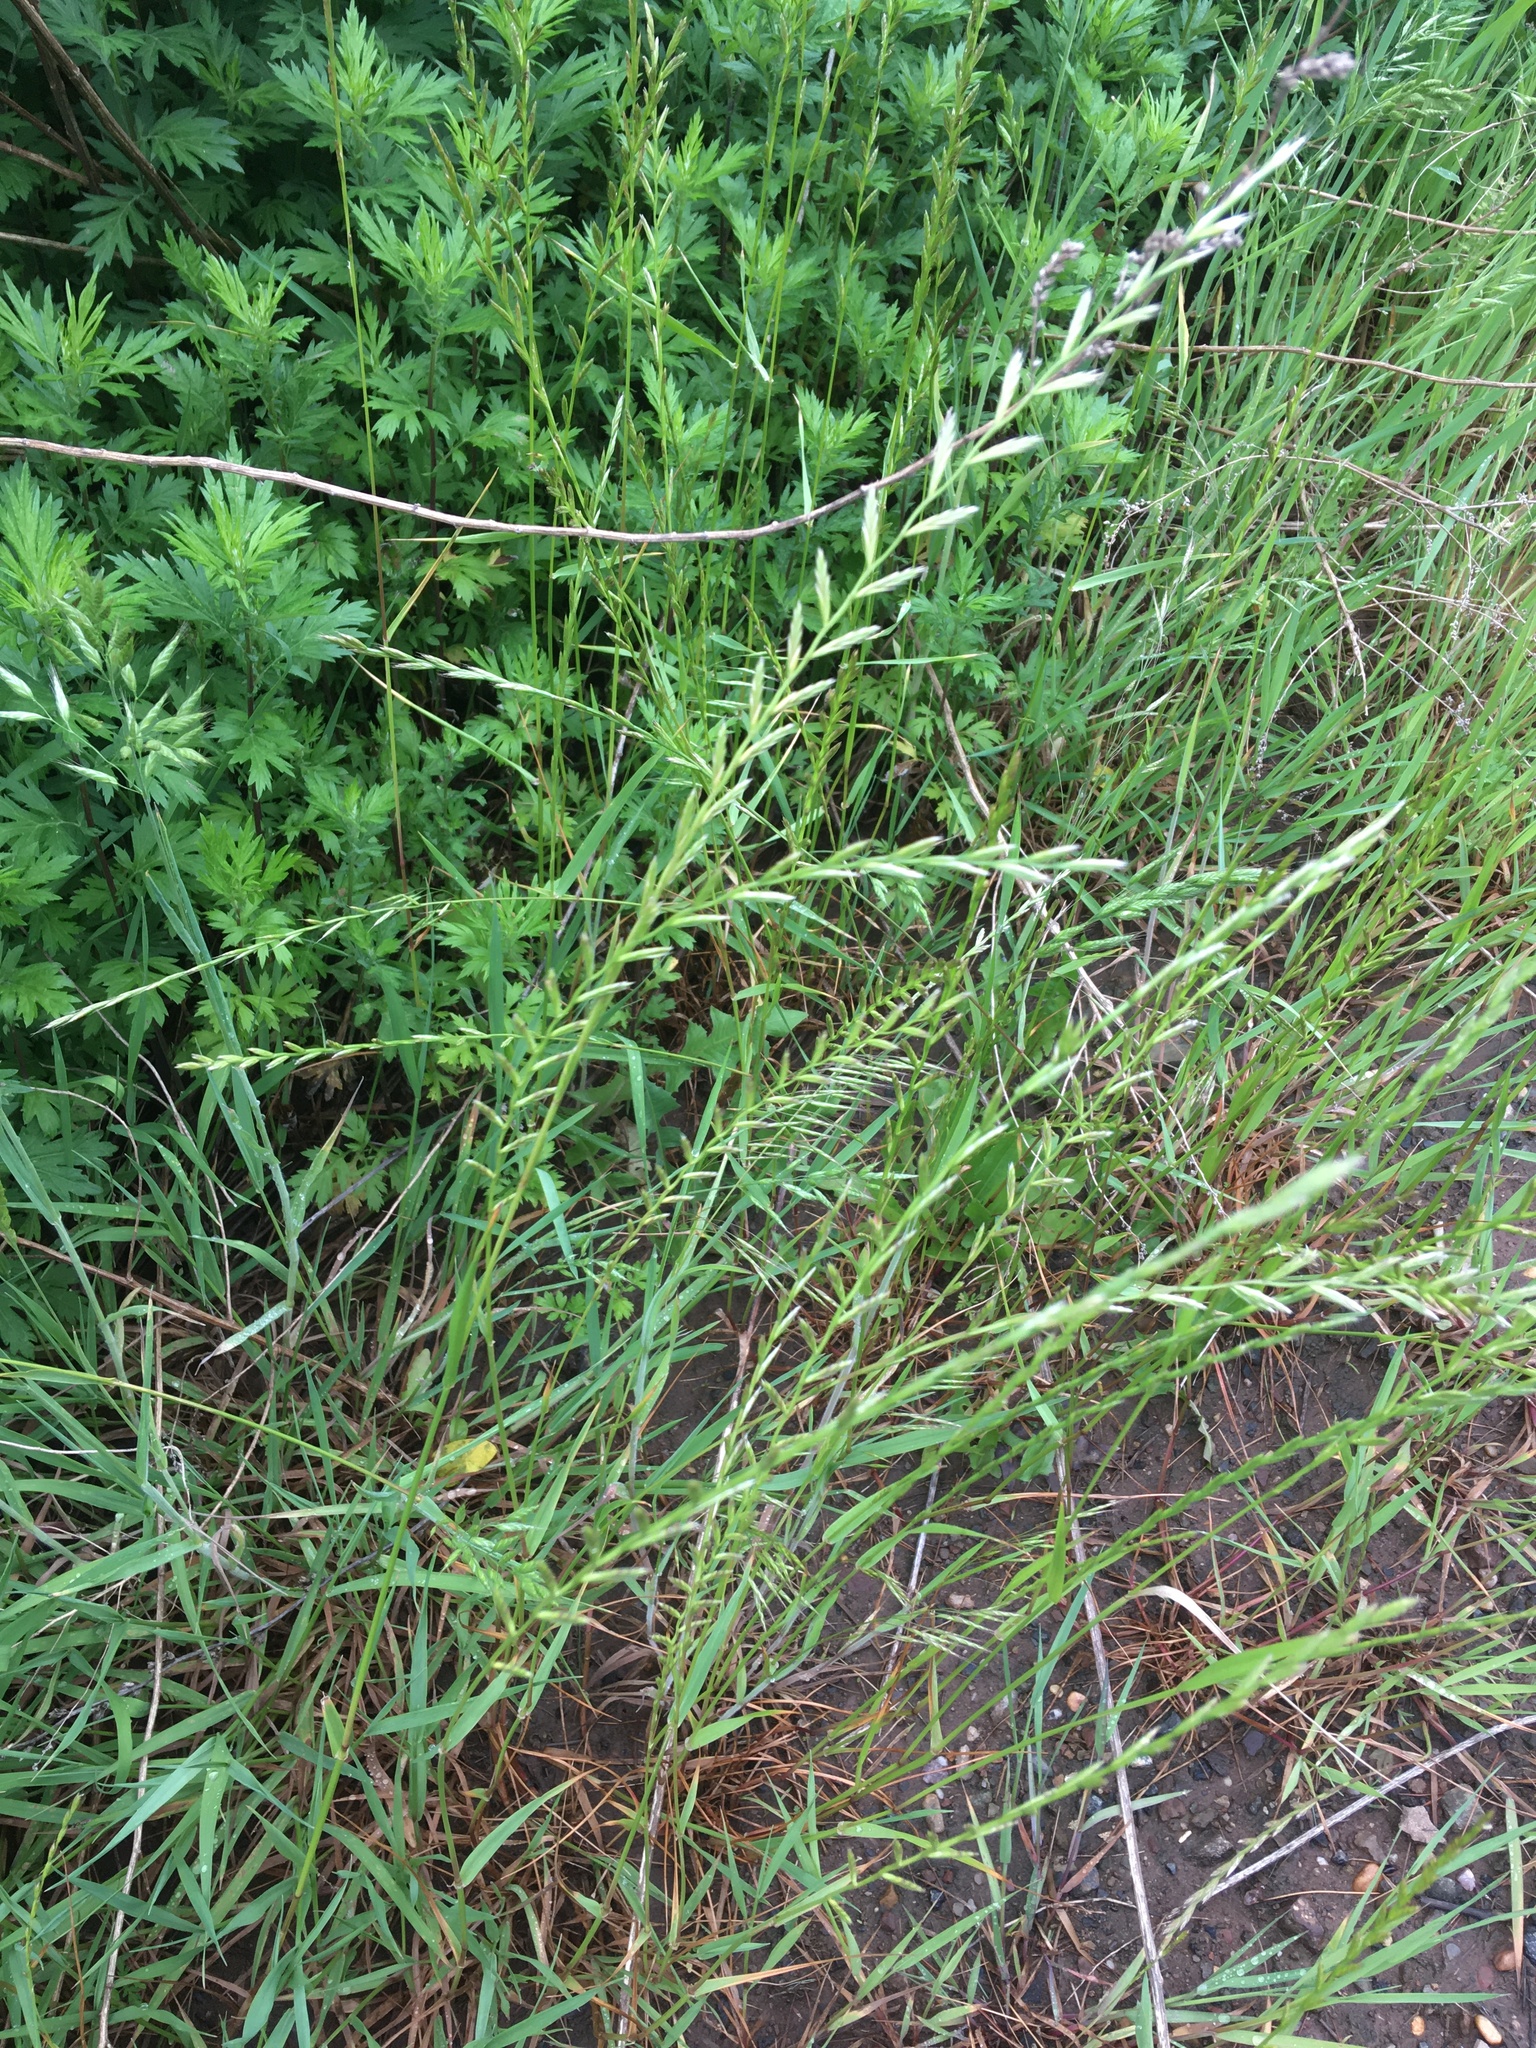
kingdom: Plantae
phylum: Tracheophyta
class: Liliopsida
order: Poales
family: Poaceae
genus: Lolium
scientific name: Lolium perenne
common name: Perennial ryegrass
